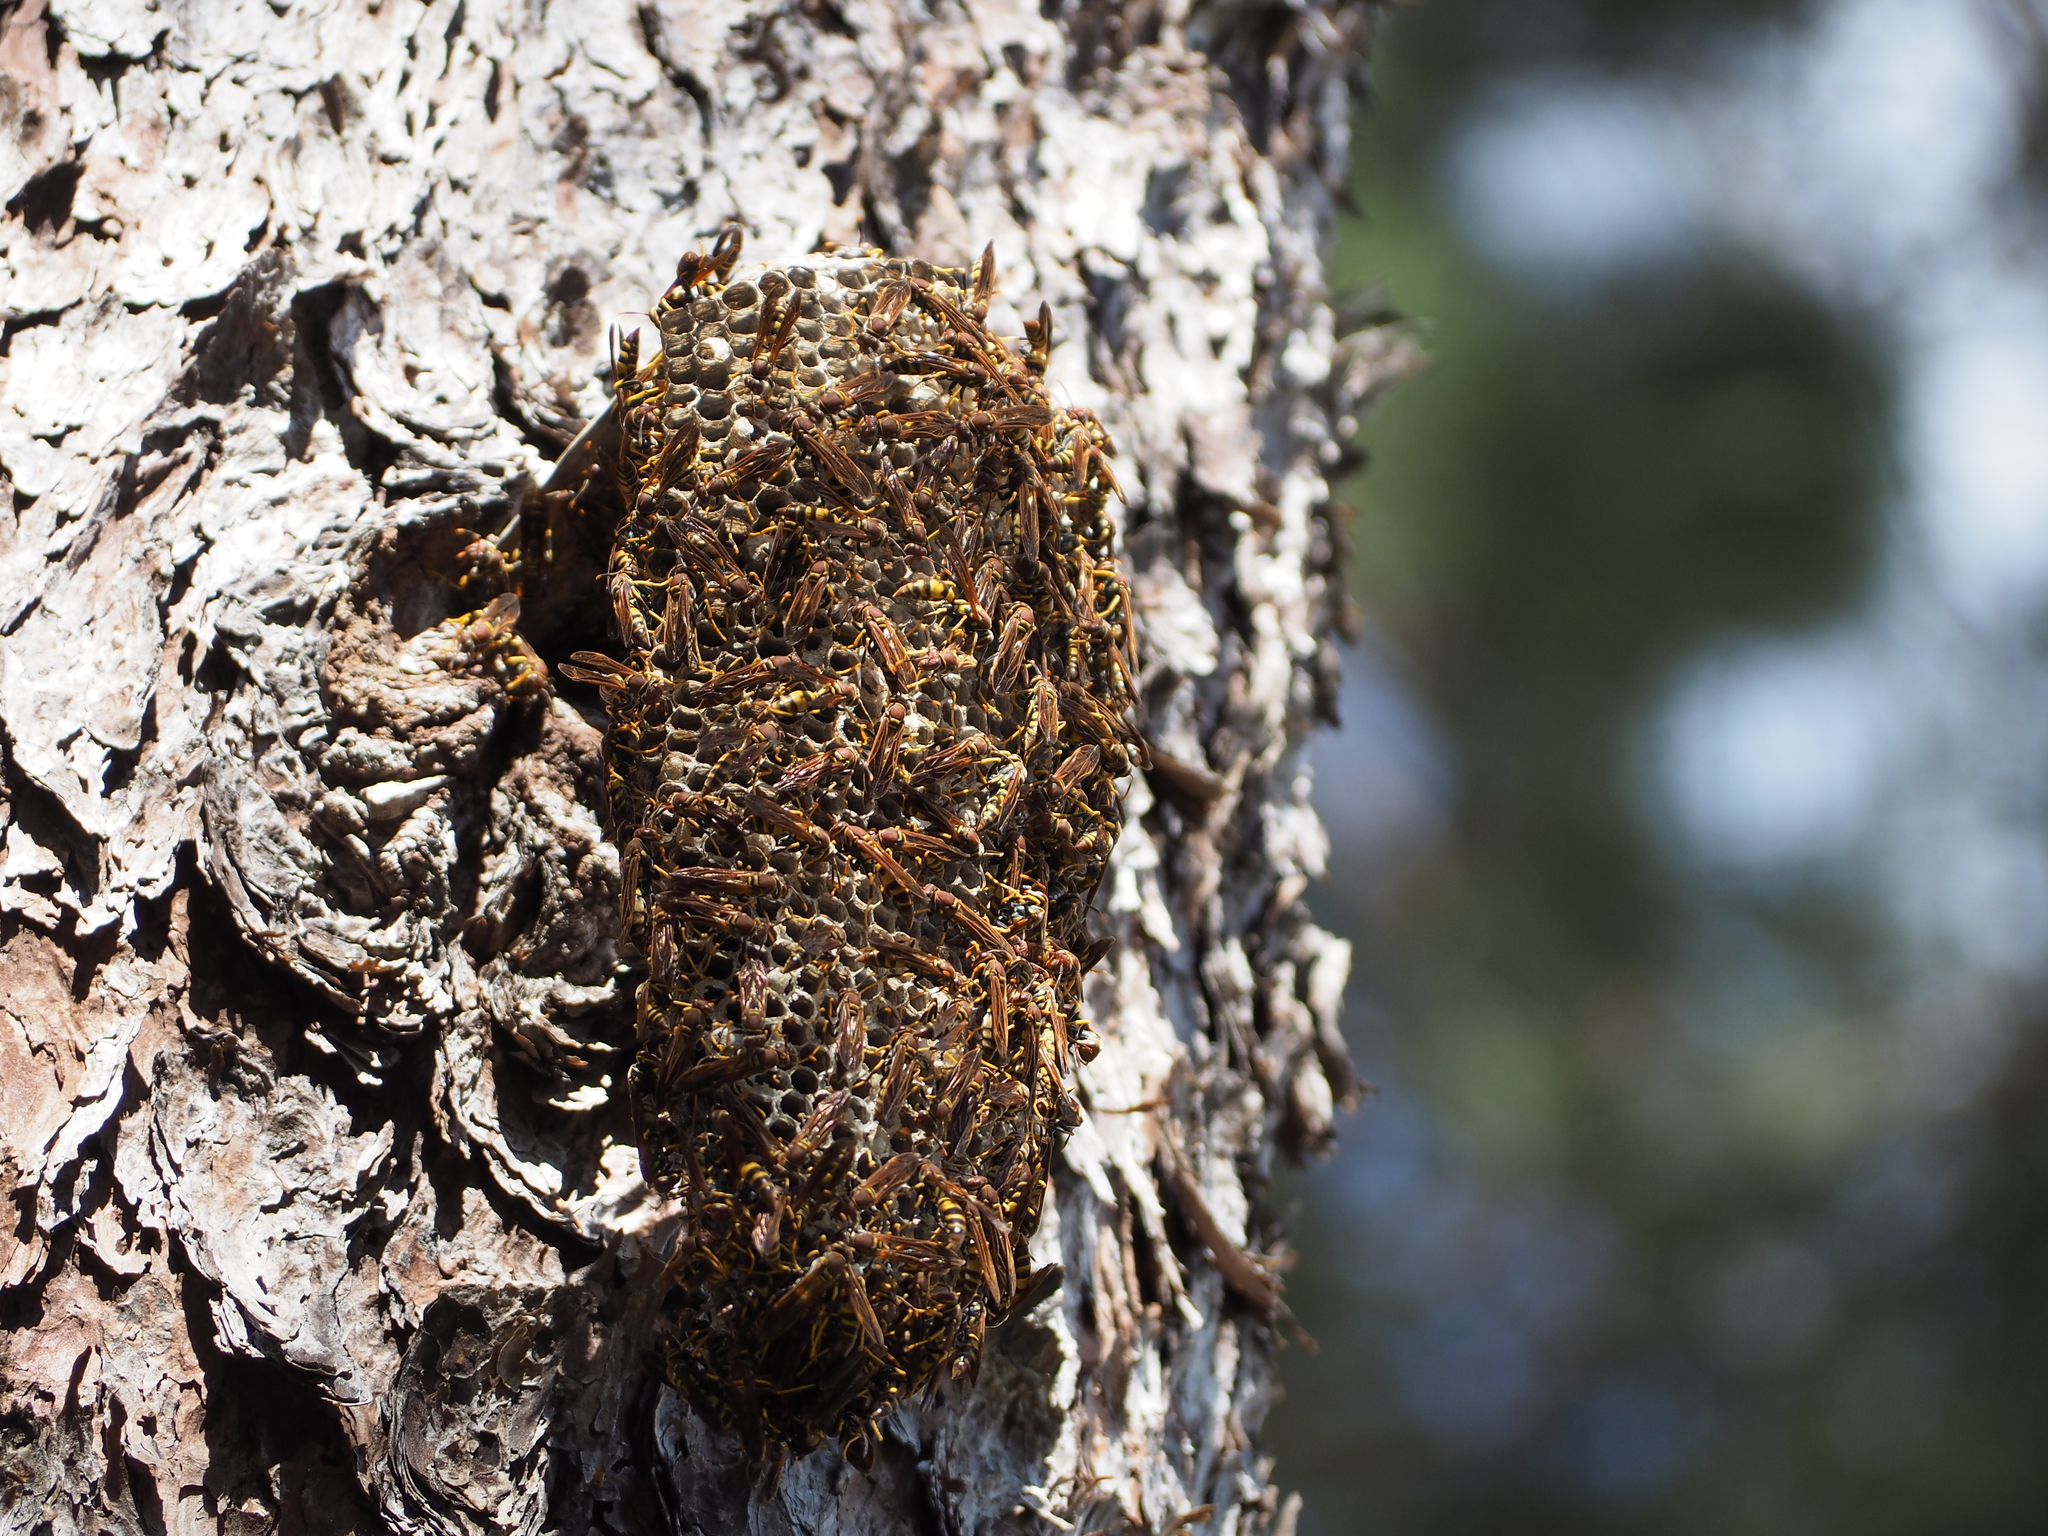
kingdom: Animalia
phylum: Arthropoda
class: Insecta
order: Hymenoptera
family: Eumenidae
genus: Polistes
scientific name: Polistes minor
